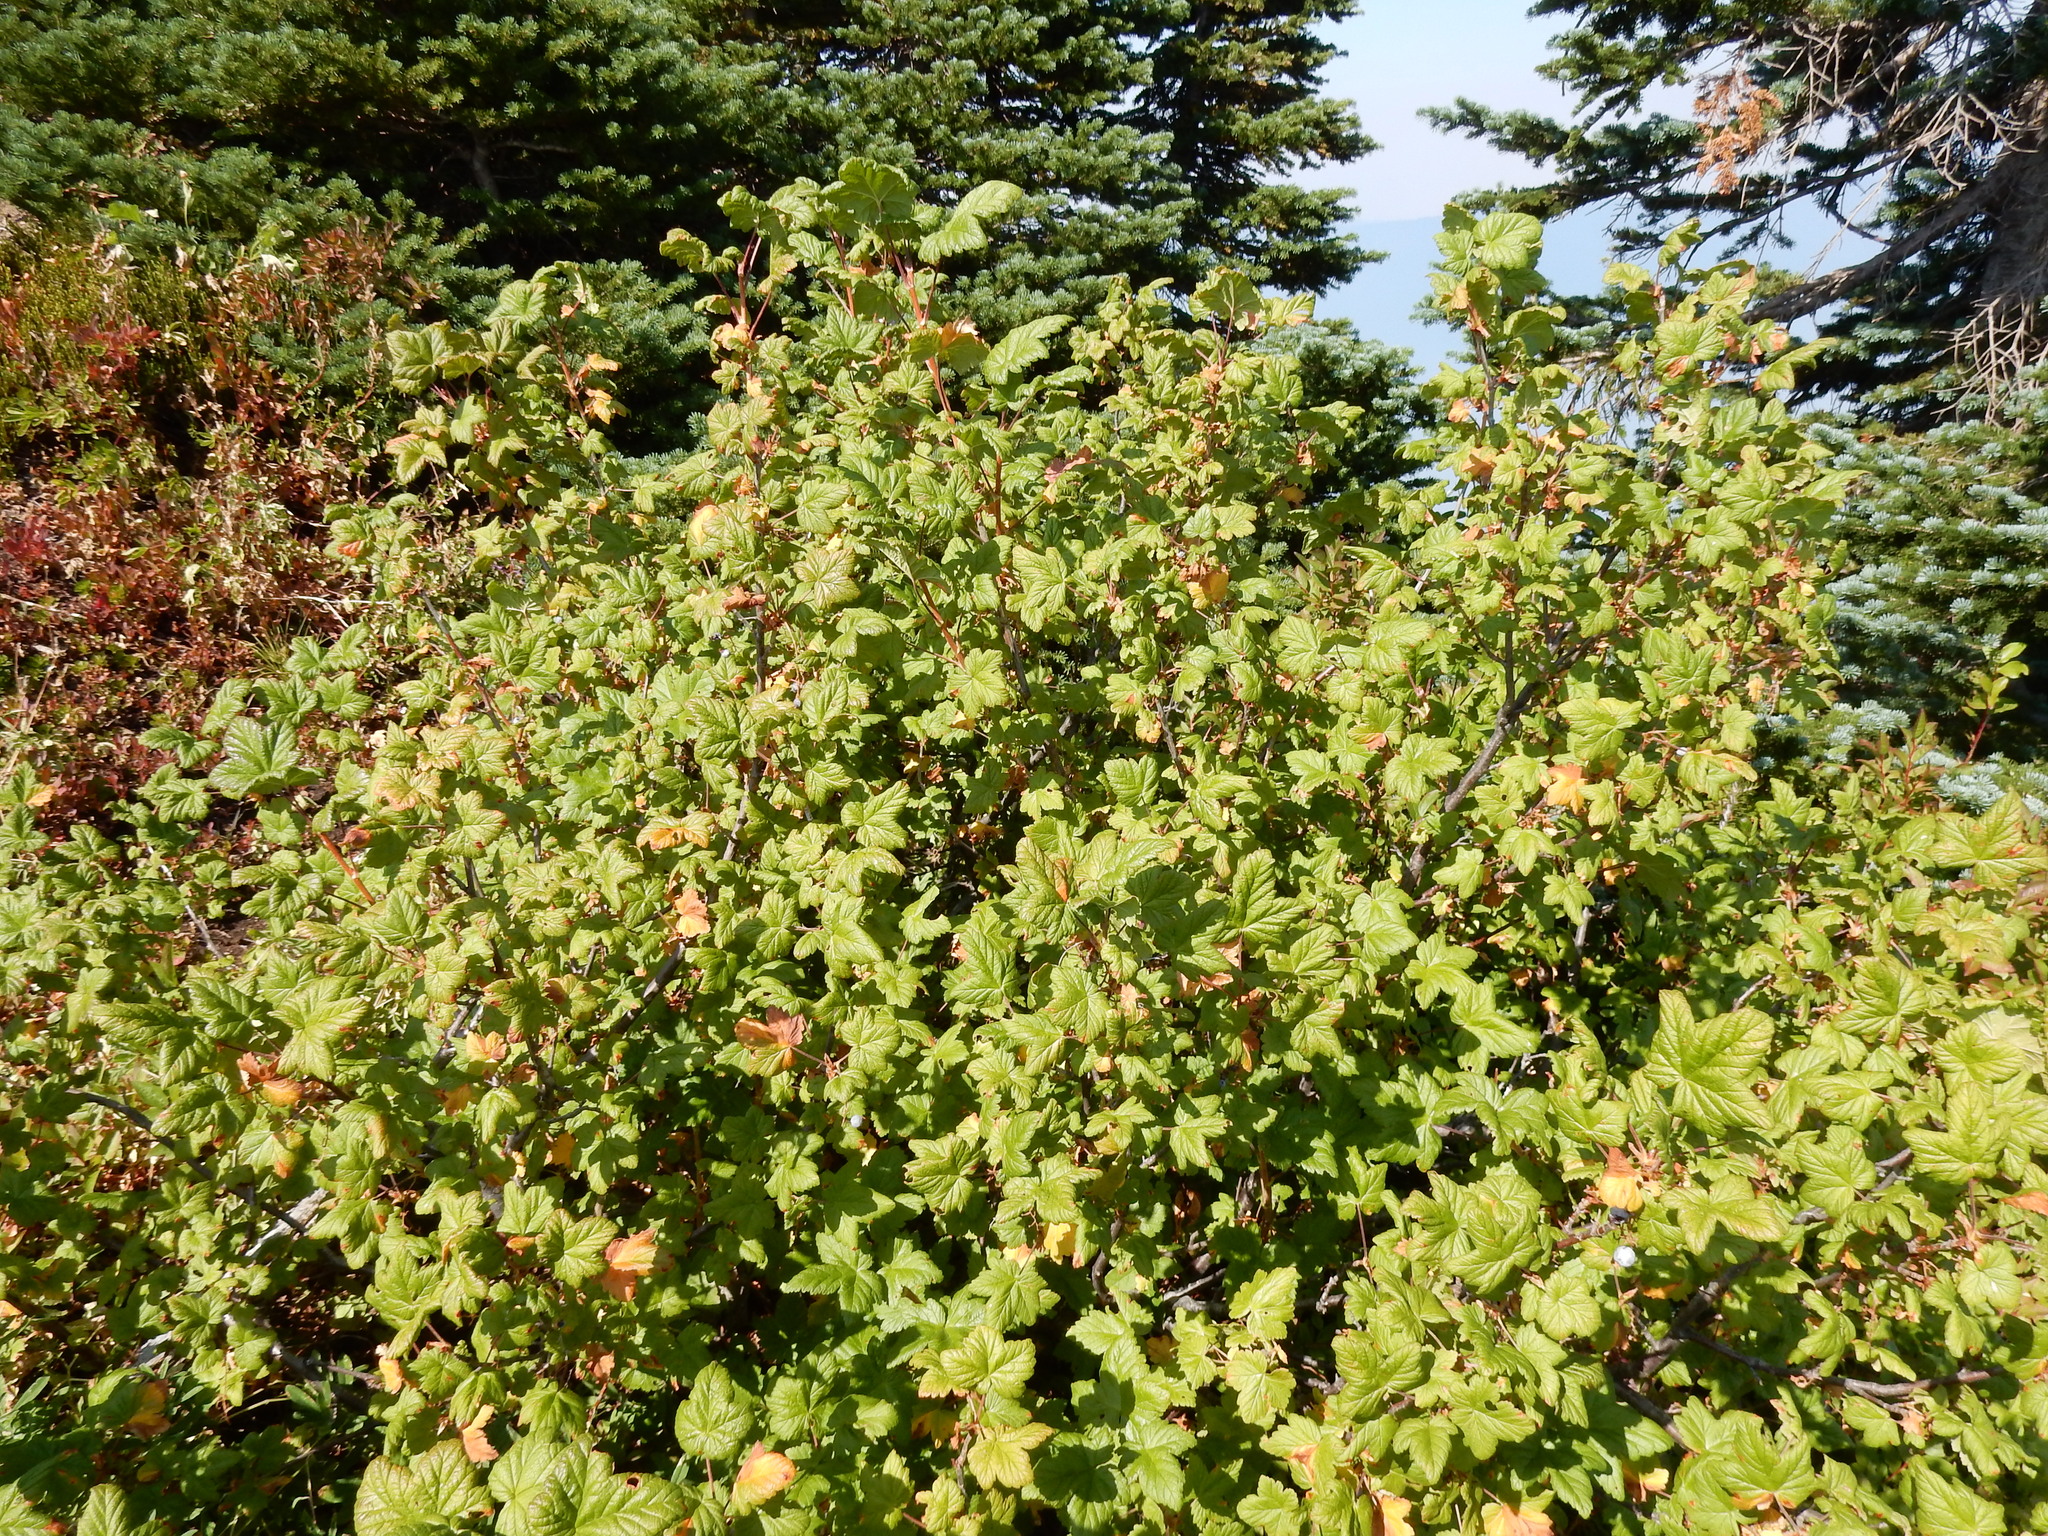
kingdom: Plantae
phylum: Tracheophyta
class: Magnoliopsida
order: Saxifragales
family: Grossulariaceae
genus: Ribes
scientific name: Ribes acerifolium
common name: Maple-leaved black currant
